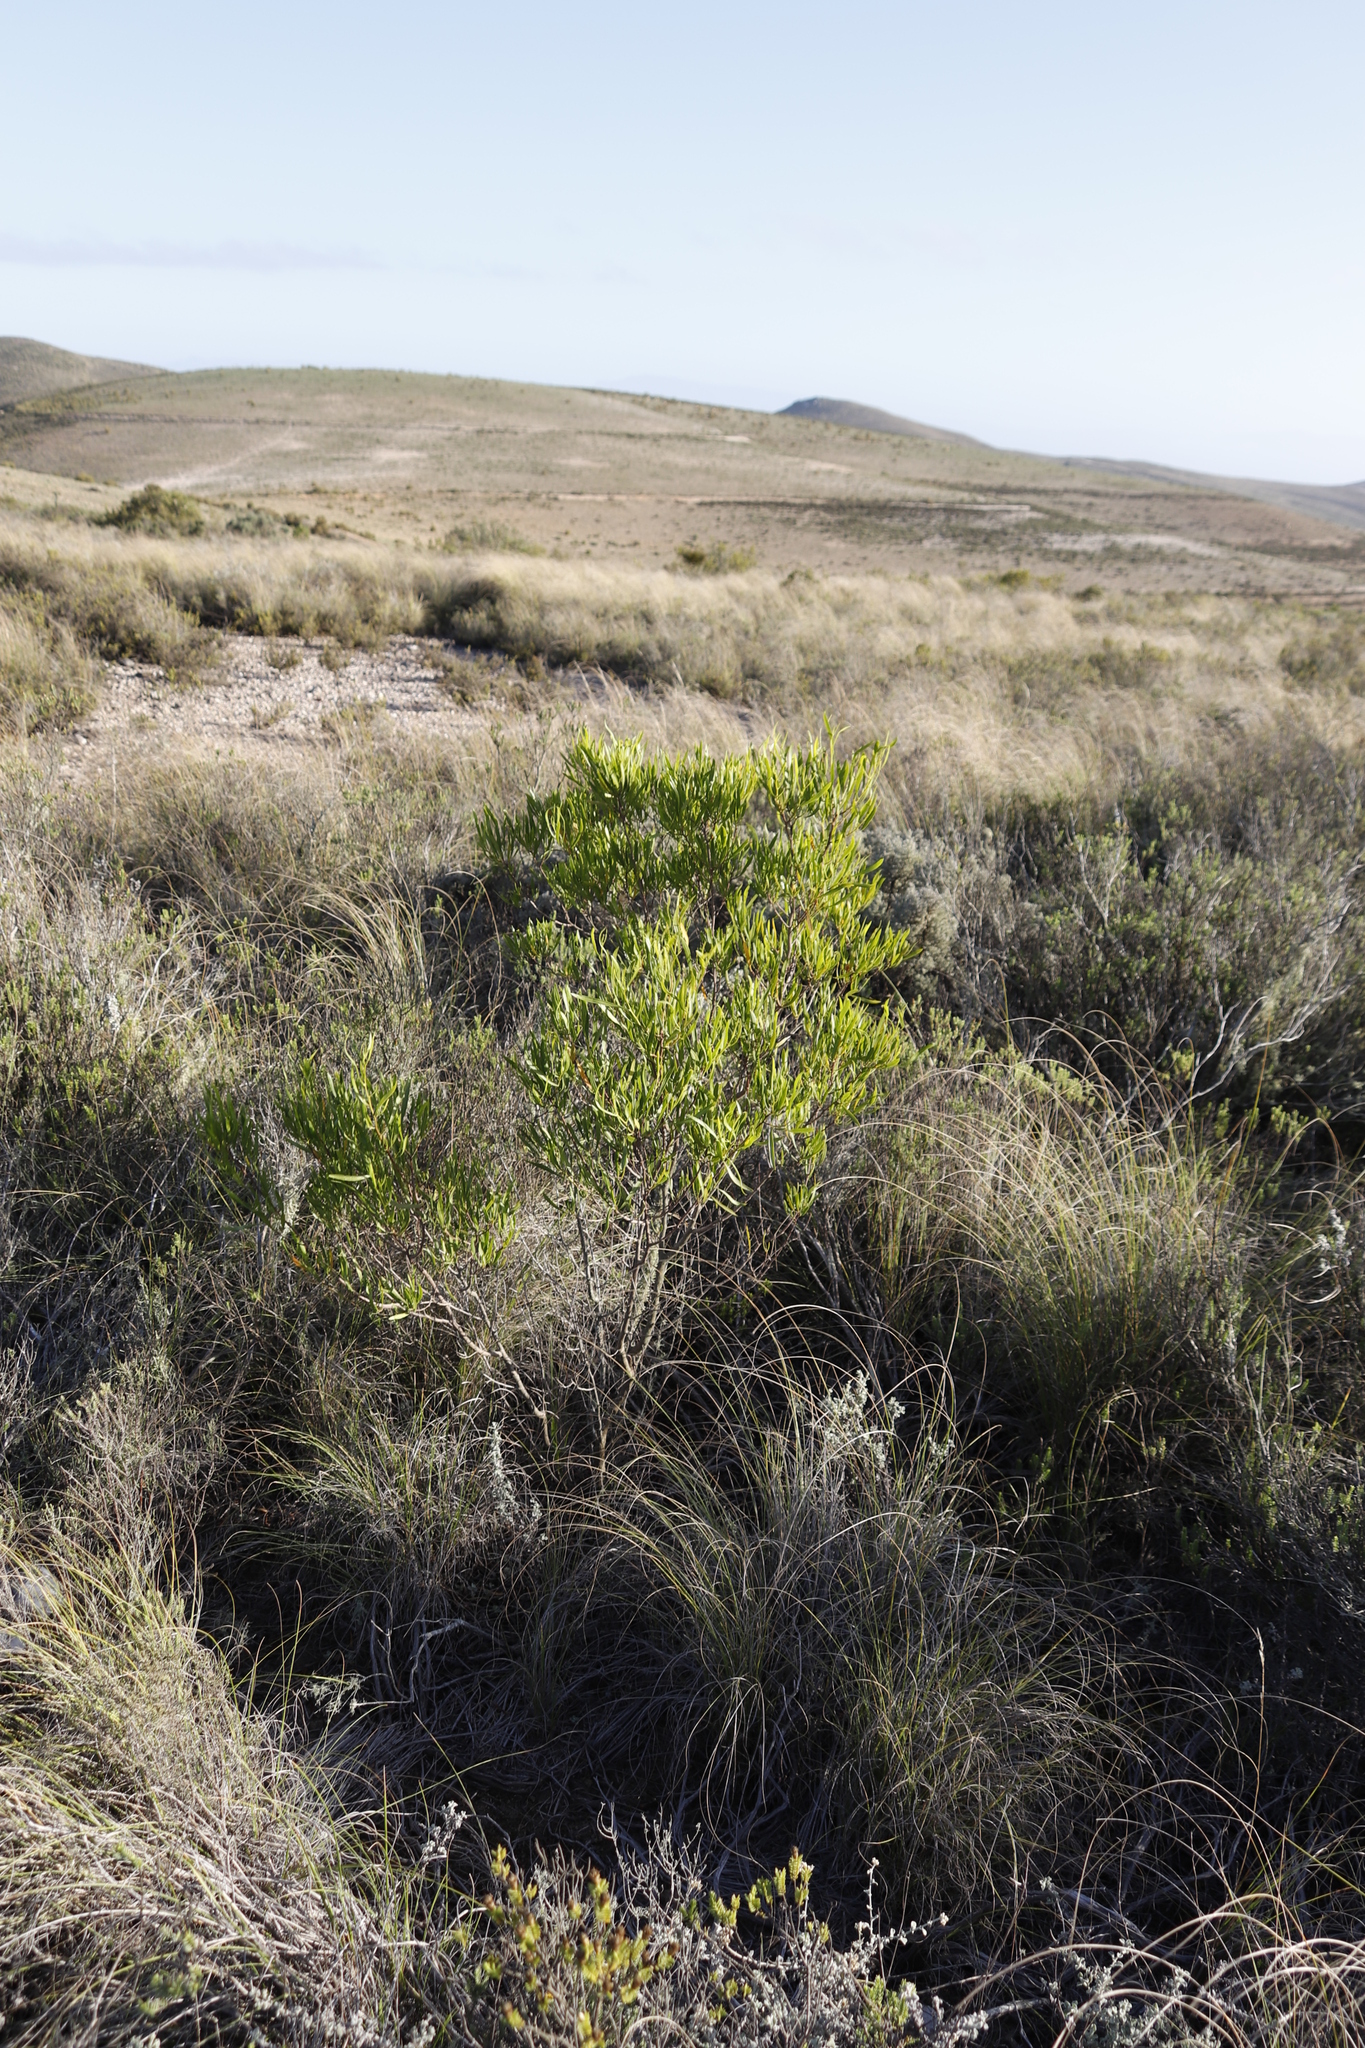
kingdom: Plantae
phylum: Tracheophyta
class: Magnoliopsida
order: Sapindales
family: Sapindaceae
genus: Dodonaea
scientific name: Dodonaea viscosa
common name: Hopbush
